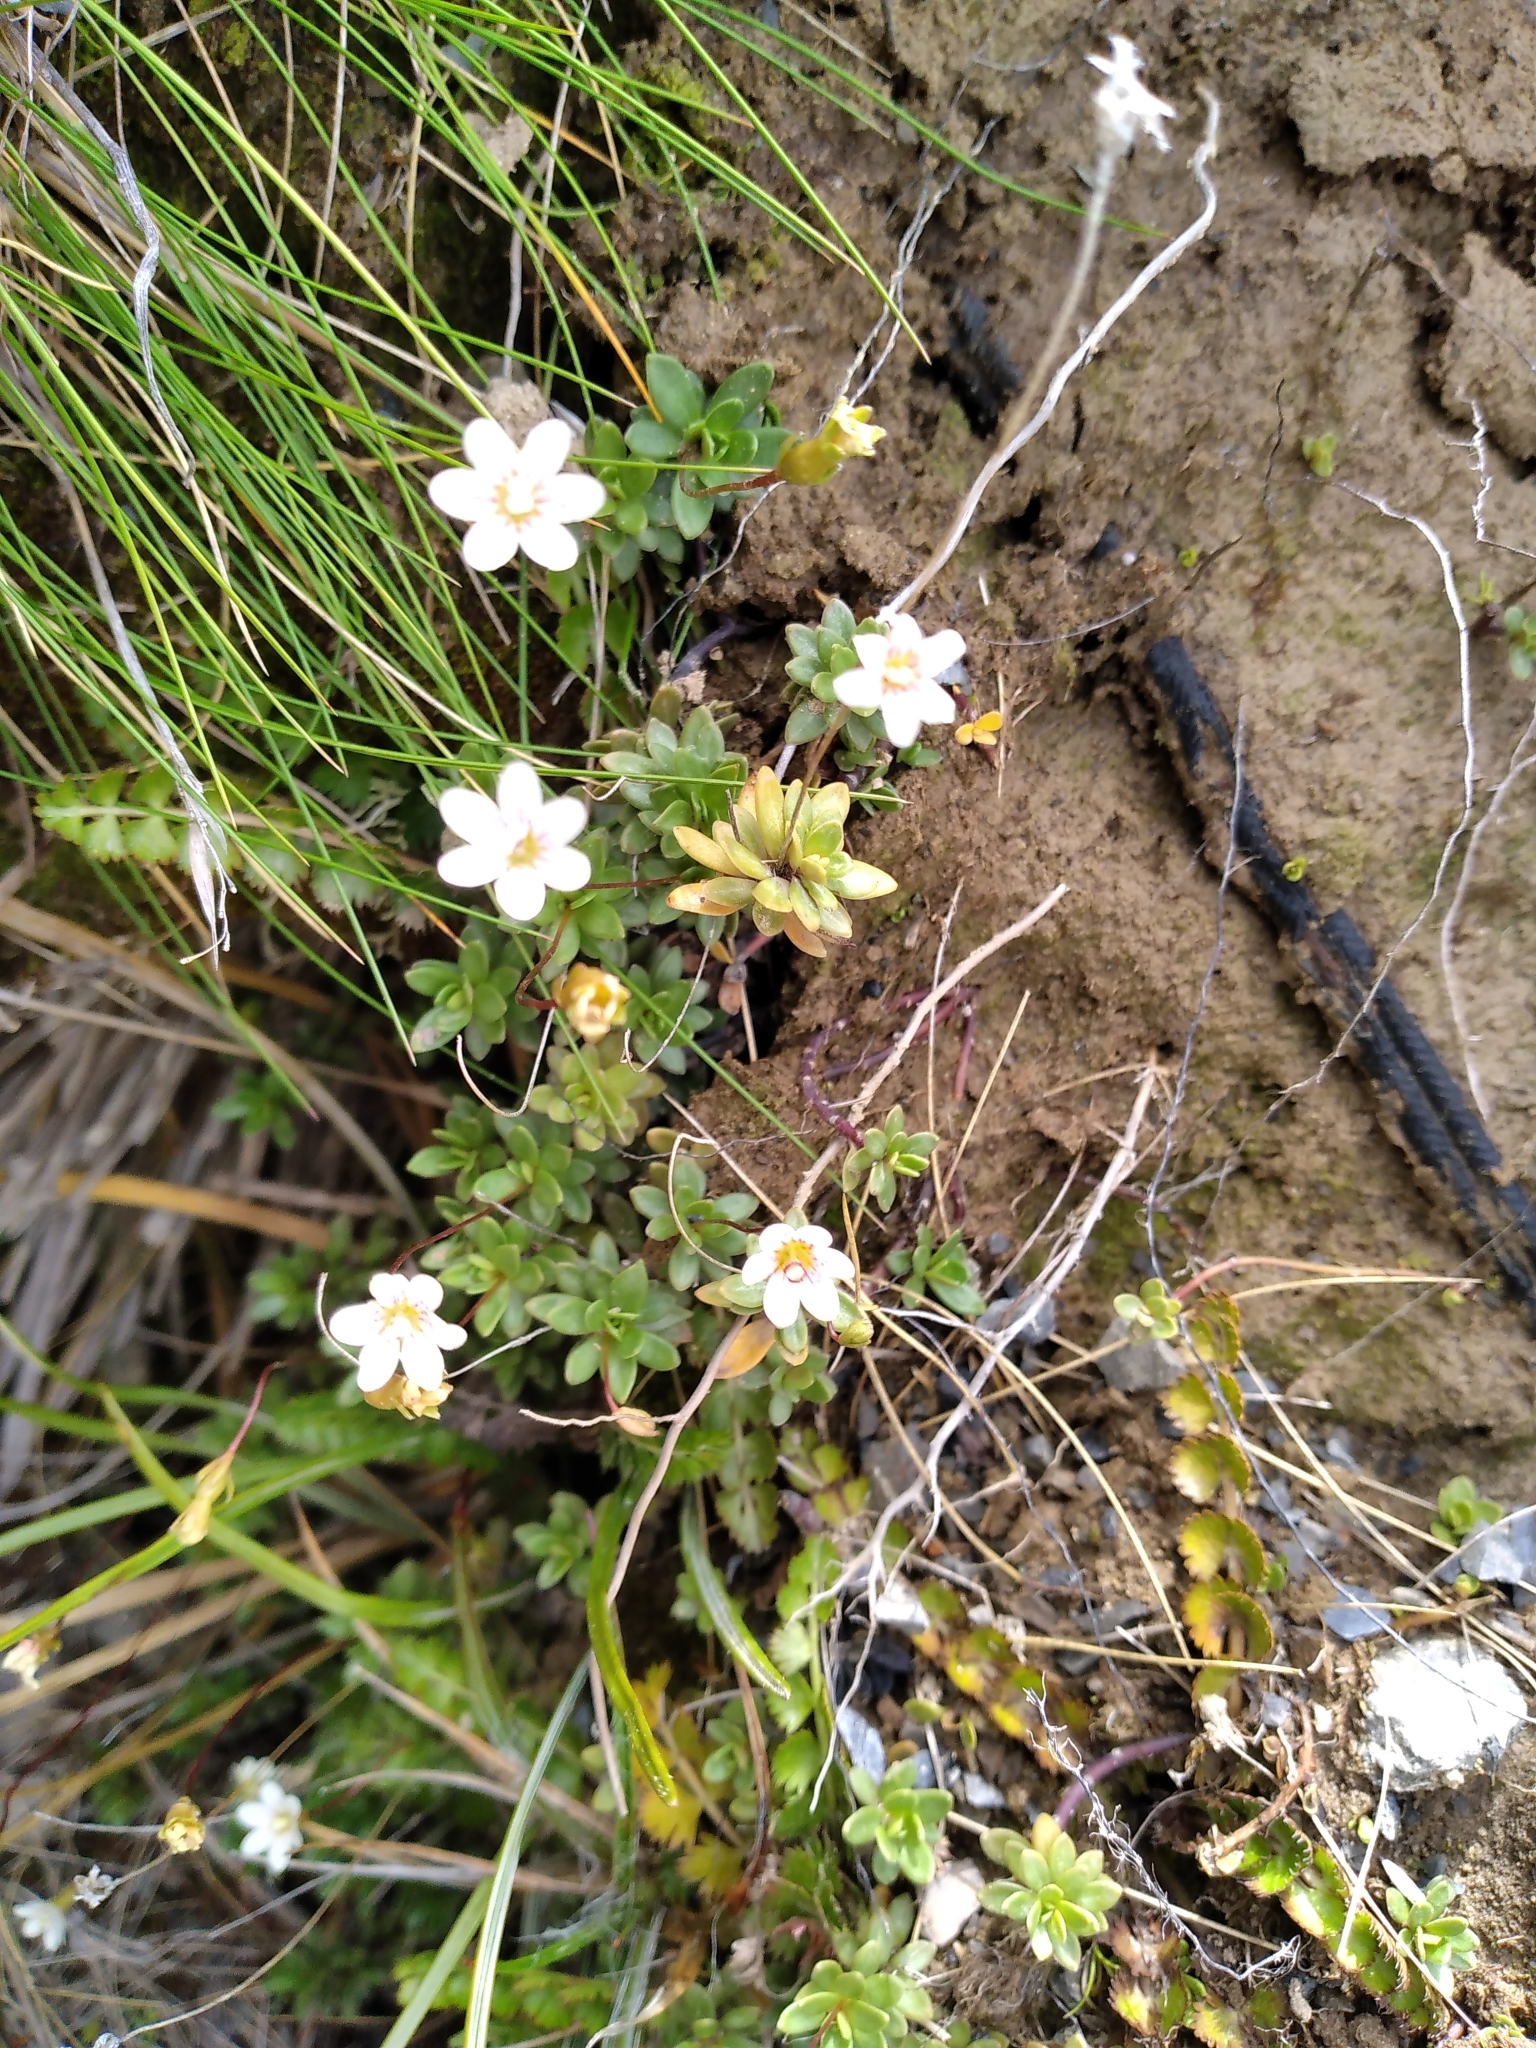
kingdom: Plantae
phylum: Tracheophyta
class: Magnoliopsida
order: Asterales
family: Stylidiaceae
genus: Forstera
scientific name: Forstera tenella
